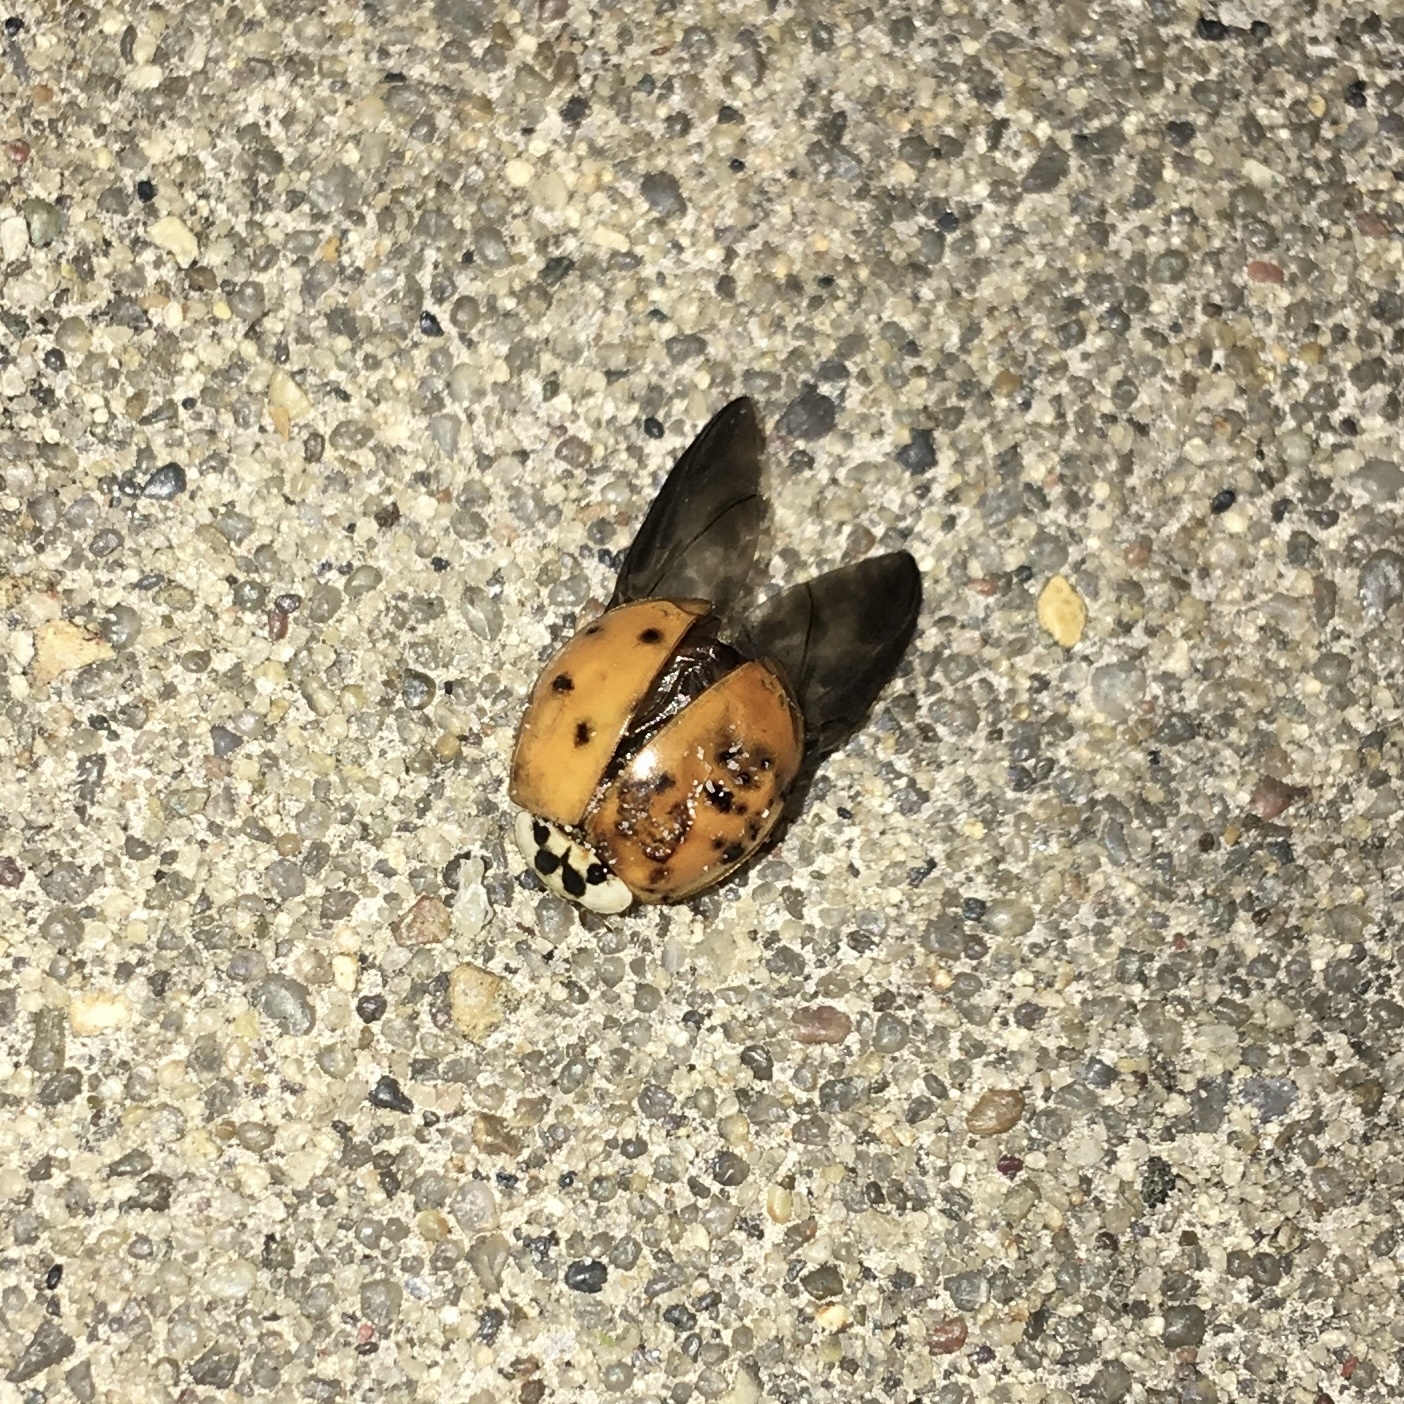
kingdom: Animalia
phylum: Arthropoda
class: Insecta
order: Coleoptera
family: Coccinellidae
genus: Harmonia
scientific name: Harmonia axyridis
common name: Harlequin ladybird
